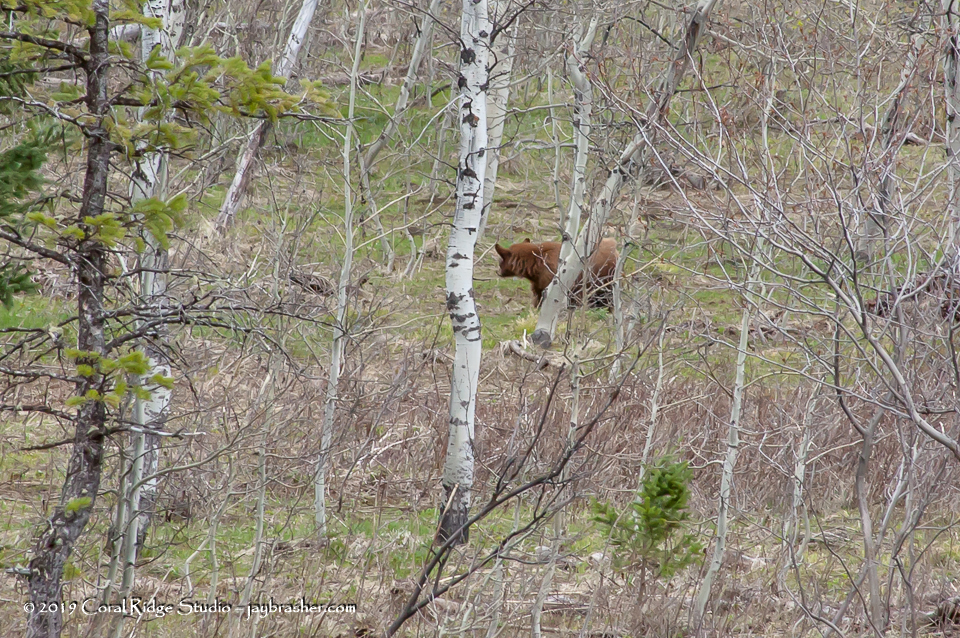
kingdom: Animalia
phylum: Chordata
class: Mammalia
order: Carnivora
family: Ursidae
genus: Ursus
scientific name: Ursus americanus
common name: American black bear
